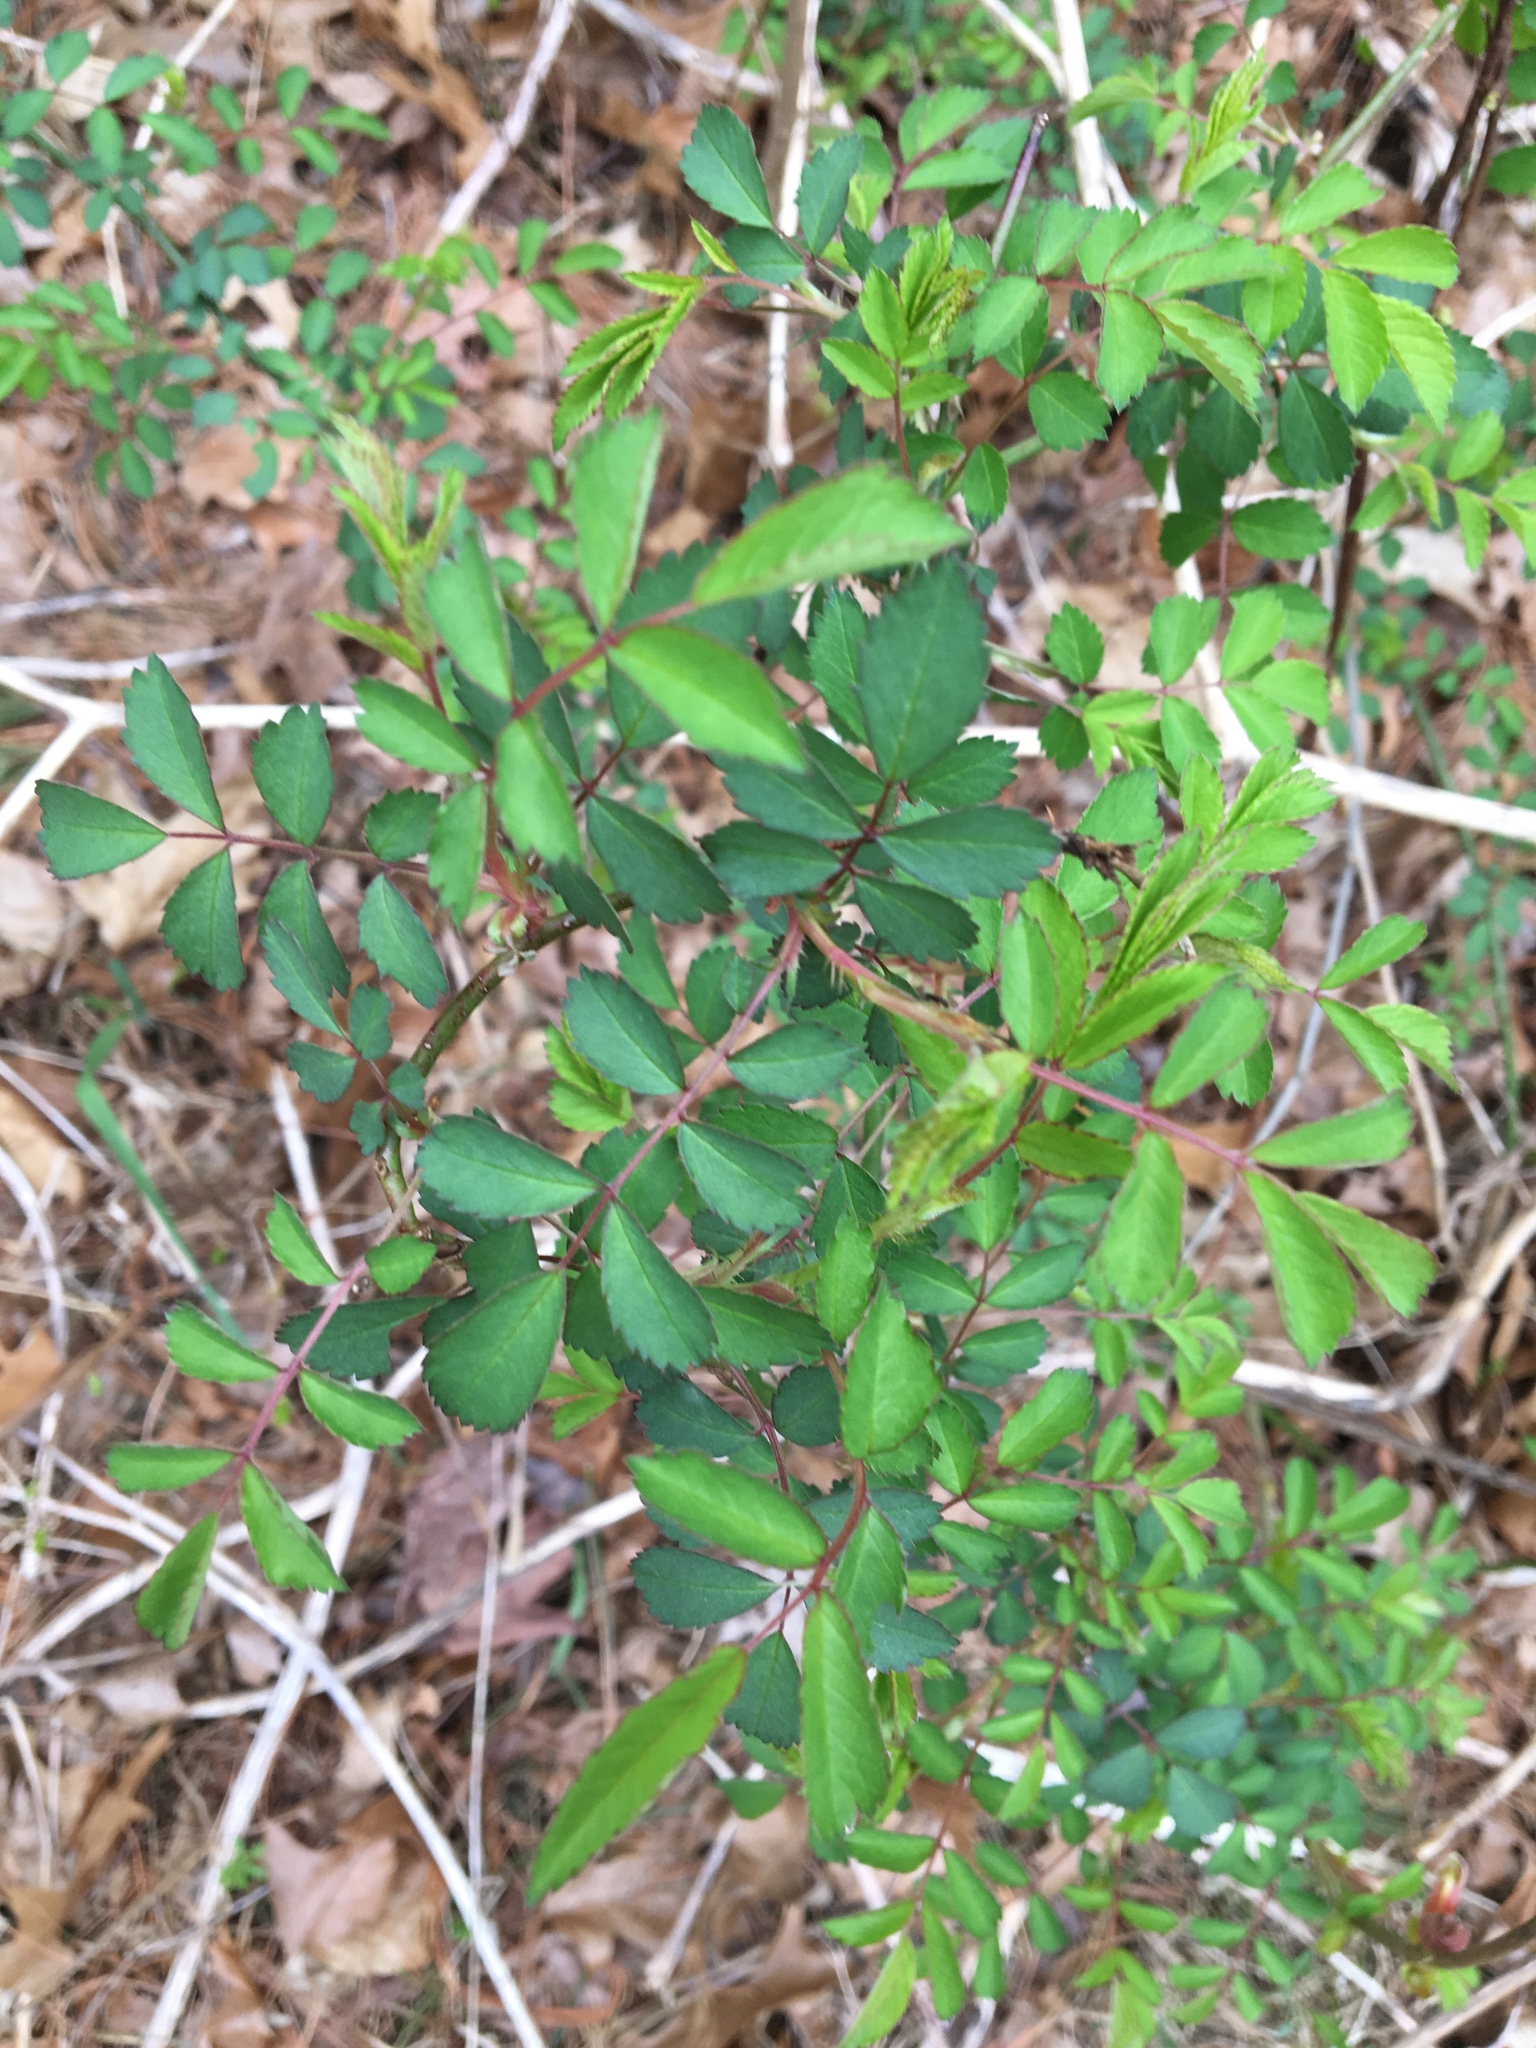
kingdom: Plantae
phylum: Tracheophyta
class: Magnoliopsida
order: Rosales
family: Rosaceae
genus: Rosa
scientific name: Rosa multiflora
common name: Multiflora rose
